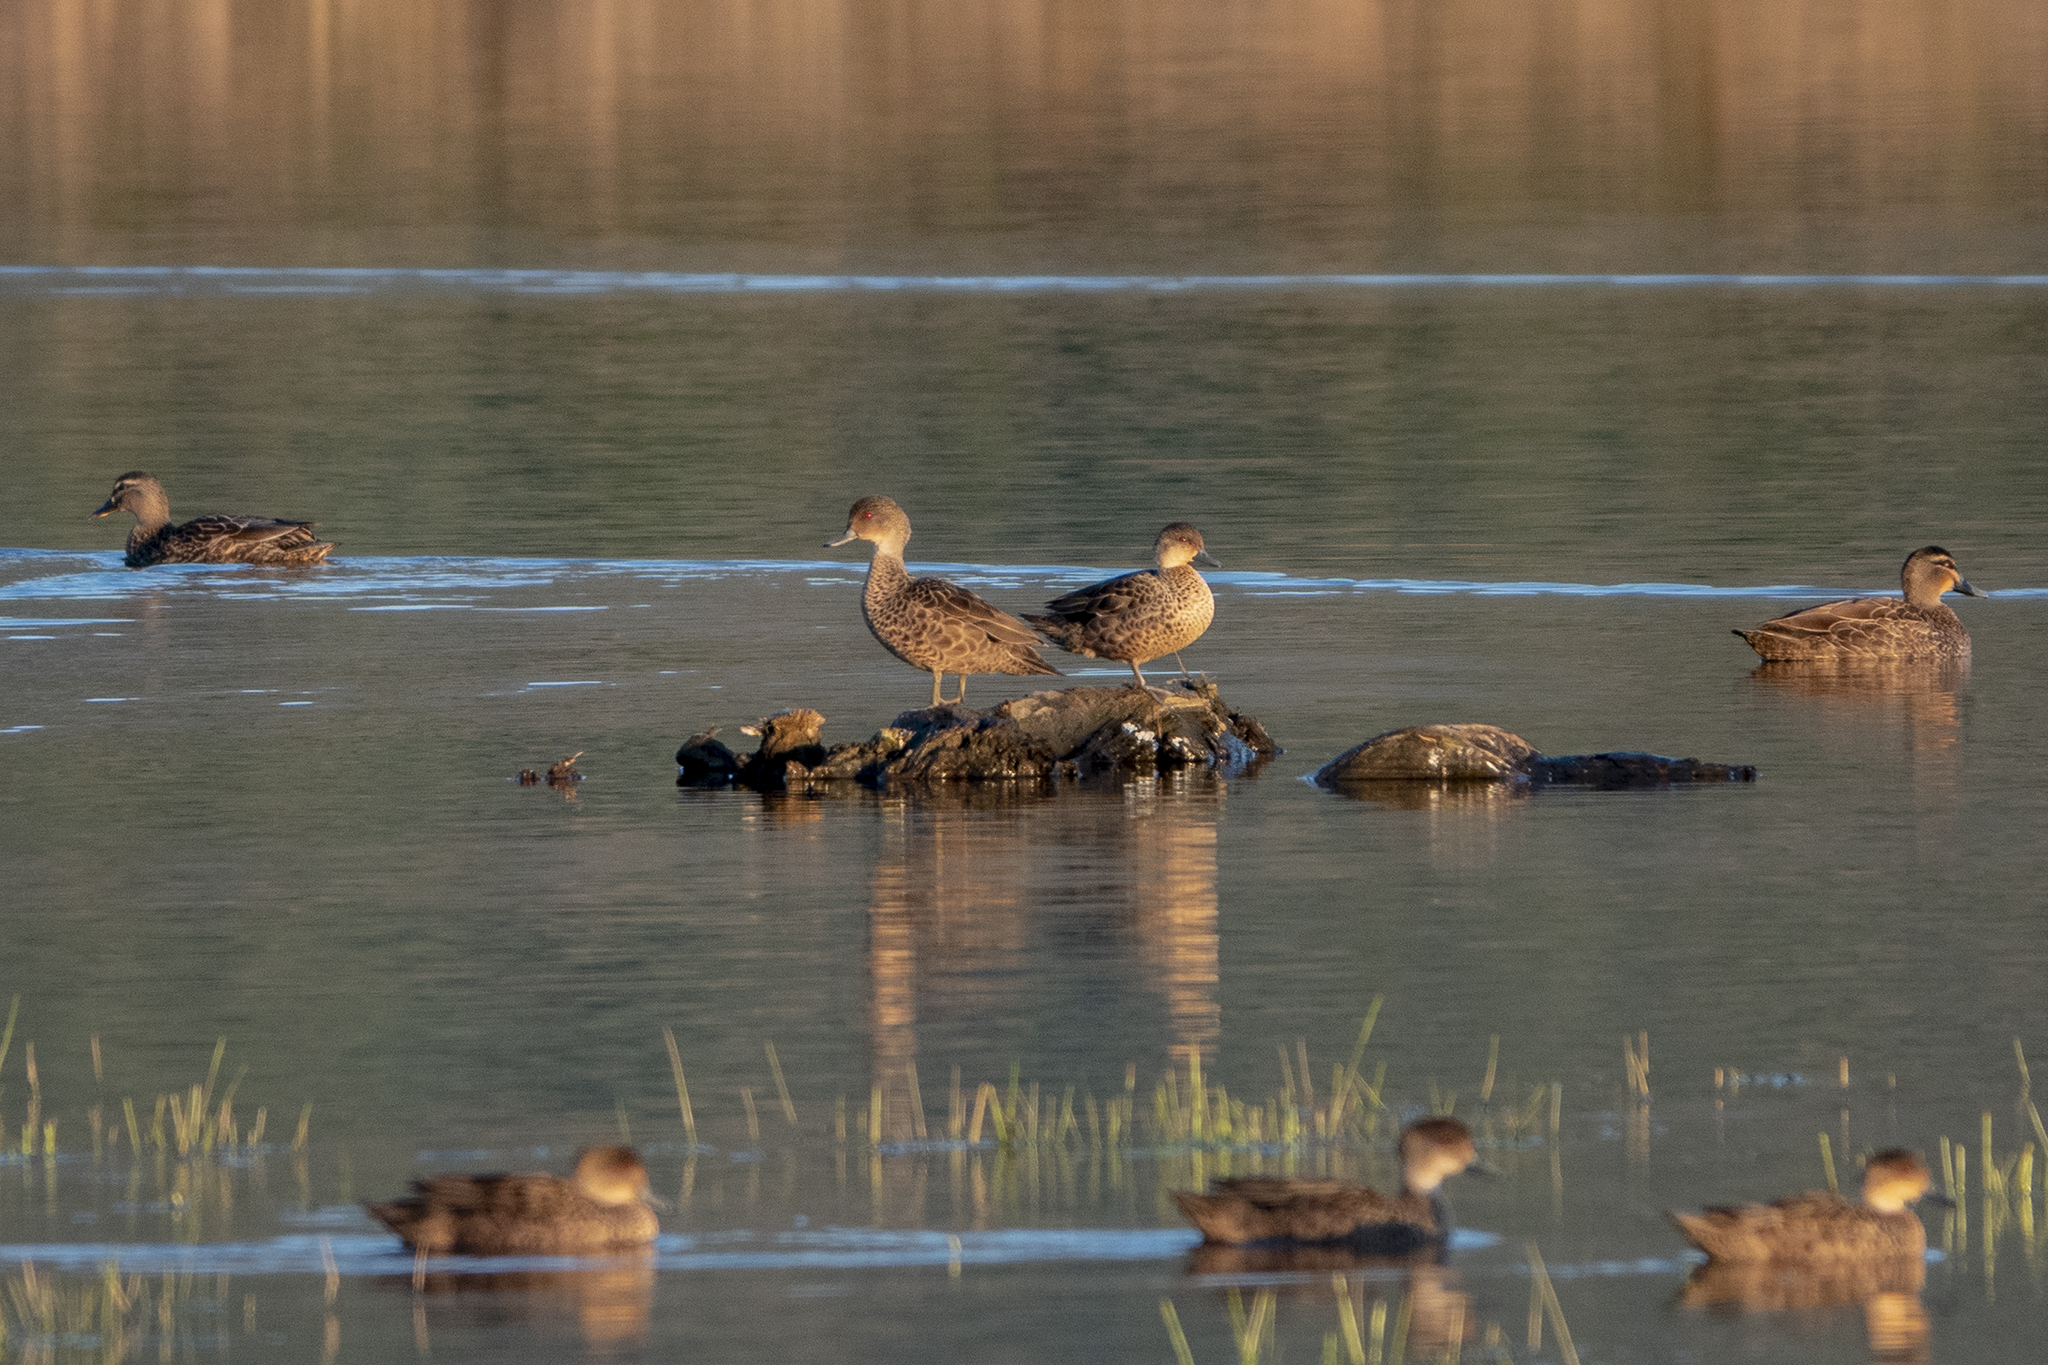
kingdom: Animalia
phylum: Chordata
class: Aves
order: Anseriformes
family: Anatidae
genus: Anas
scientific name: Anas gracilis
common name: Grey teal
